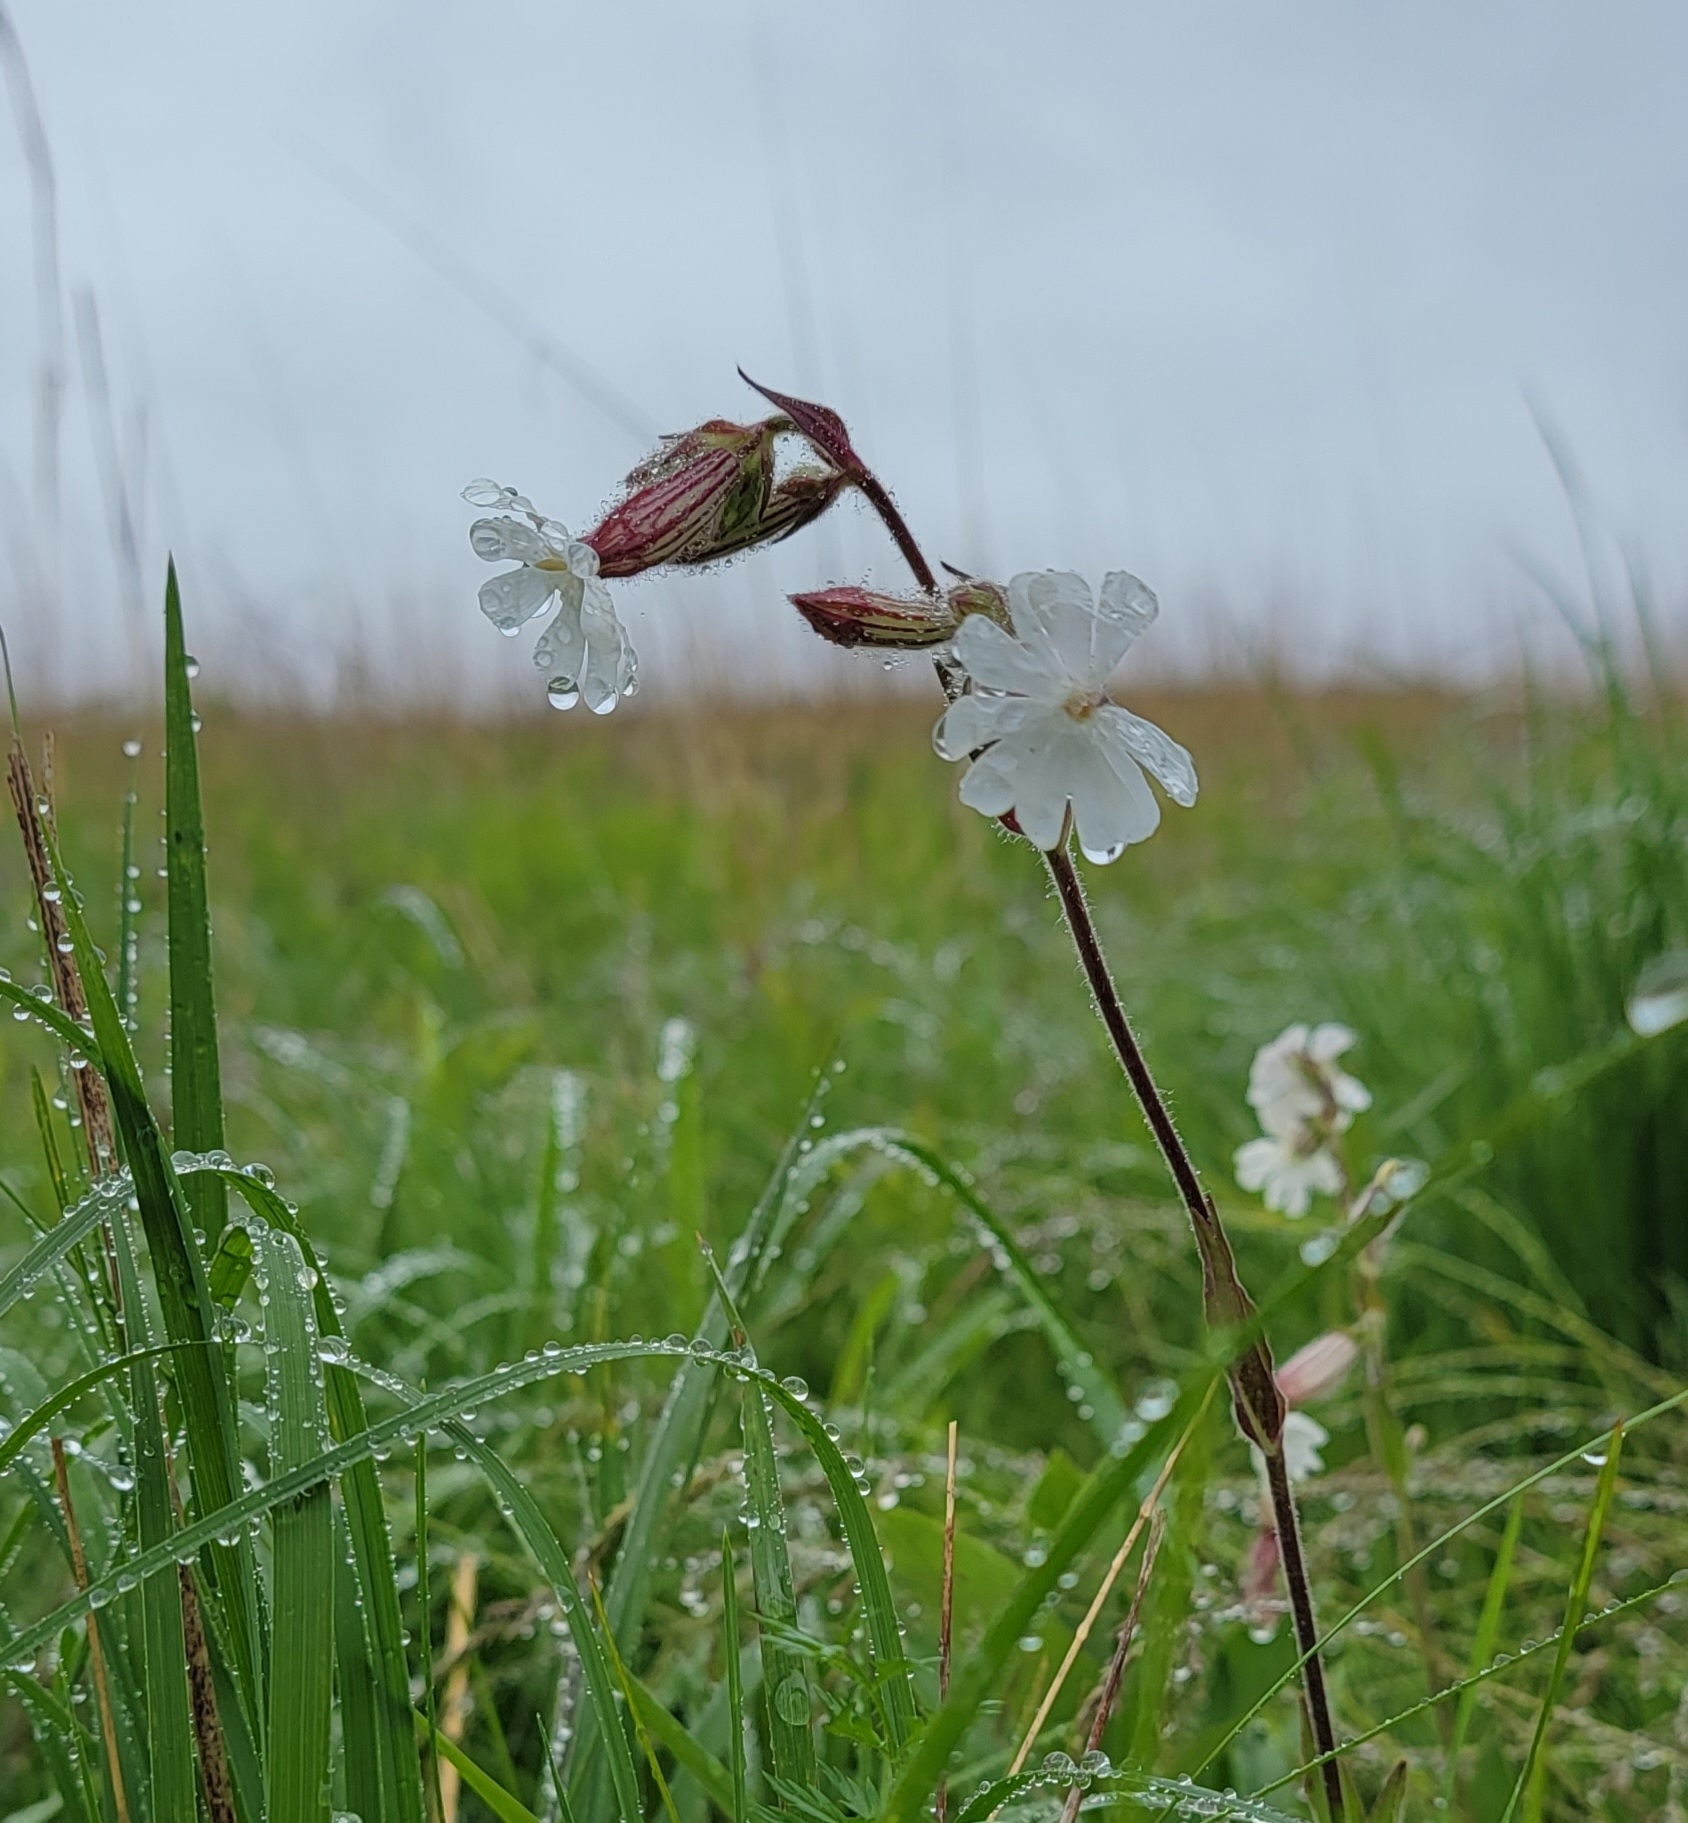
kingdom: Plantae
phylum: Tracheophyta
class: Magnoliopsida
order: Caryophyllales
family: Caryophyllaceae
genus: Silene
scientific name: Silene latifolia
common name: White campion
